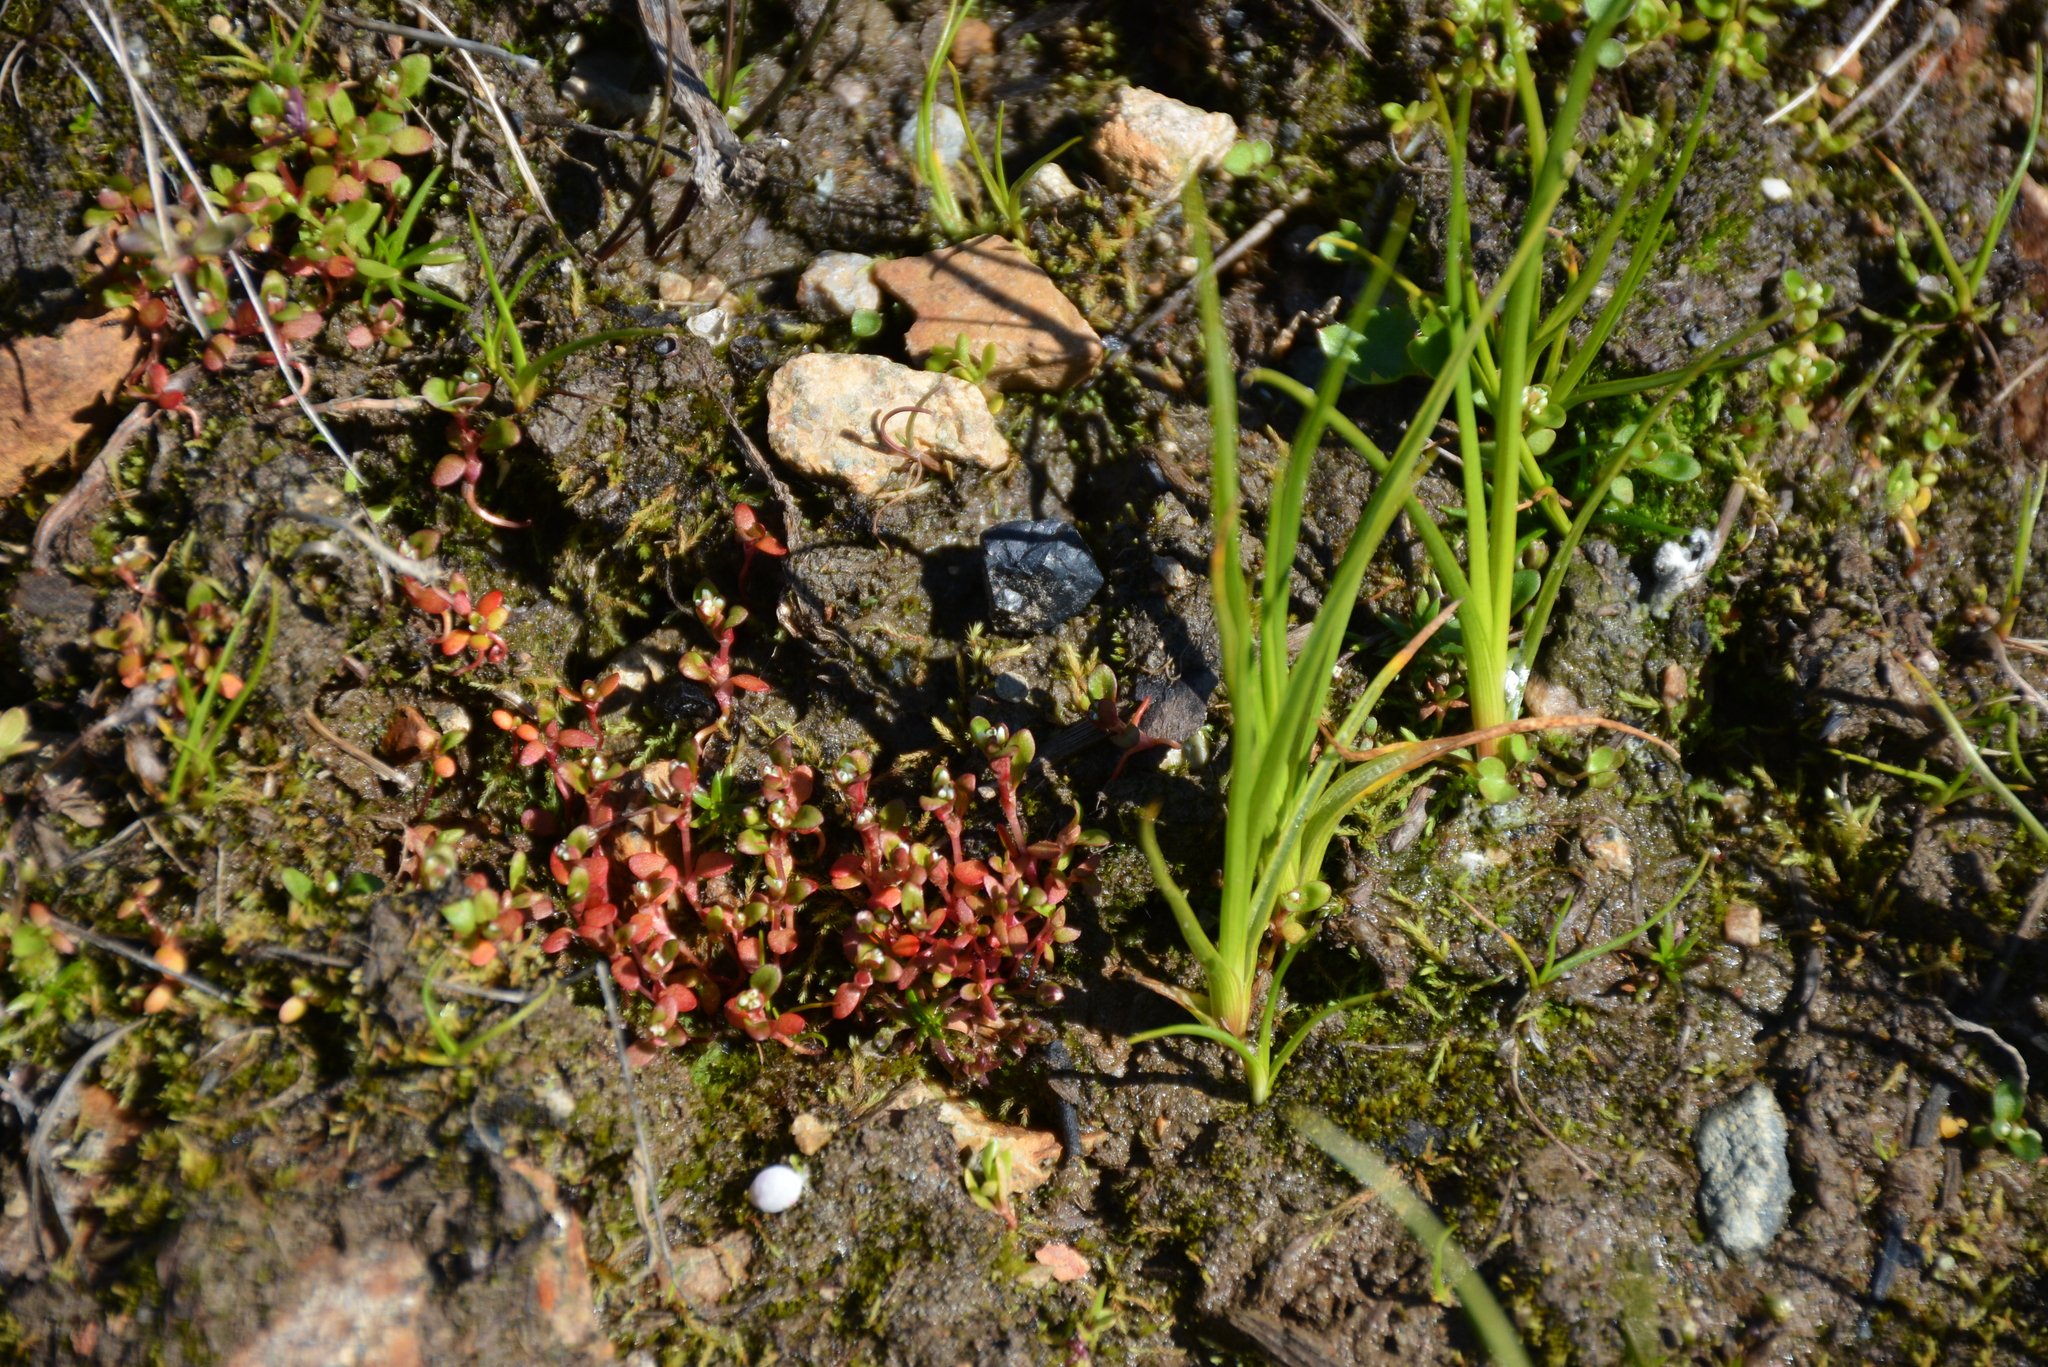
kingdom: Plantae
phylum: Tracheophyta
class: Magnoliopsida
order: Caryophyllales
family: Polygonaceae
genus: Koenigia
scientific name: Koenigia islandica
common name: Iceland-purslane
